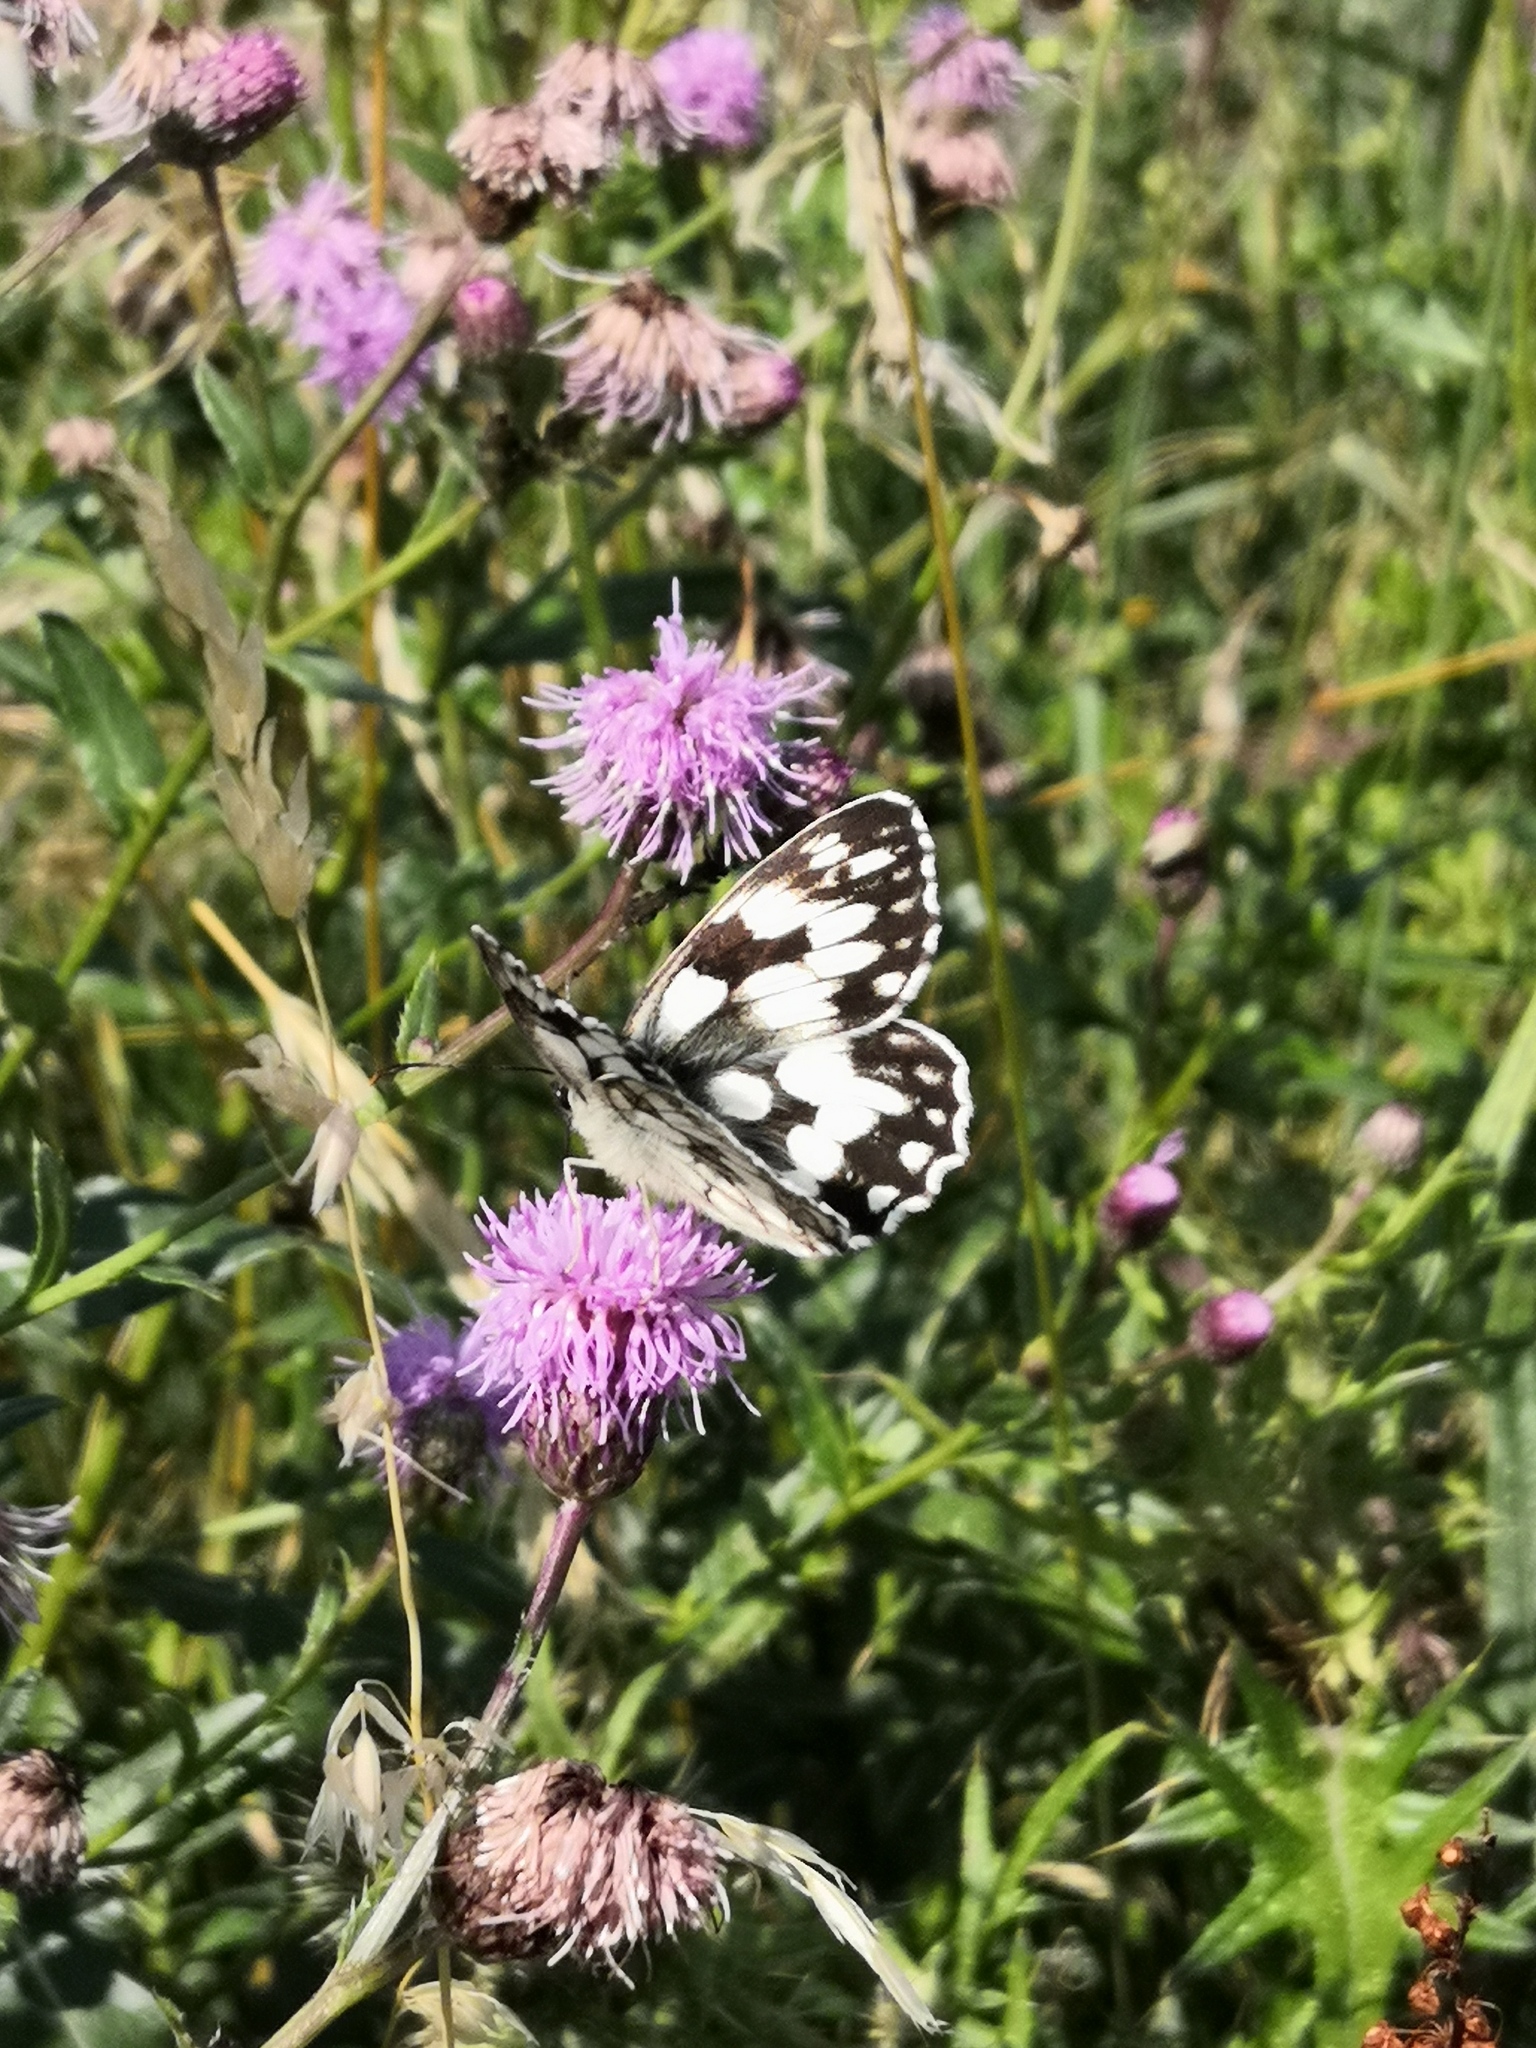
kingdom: Animalia
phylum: Arthropoda
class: Insecta
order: Lepidoptera
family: Nymphalidae
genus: Melanargia
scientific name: Melanargia galathea
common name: Marbled white
